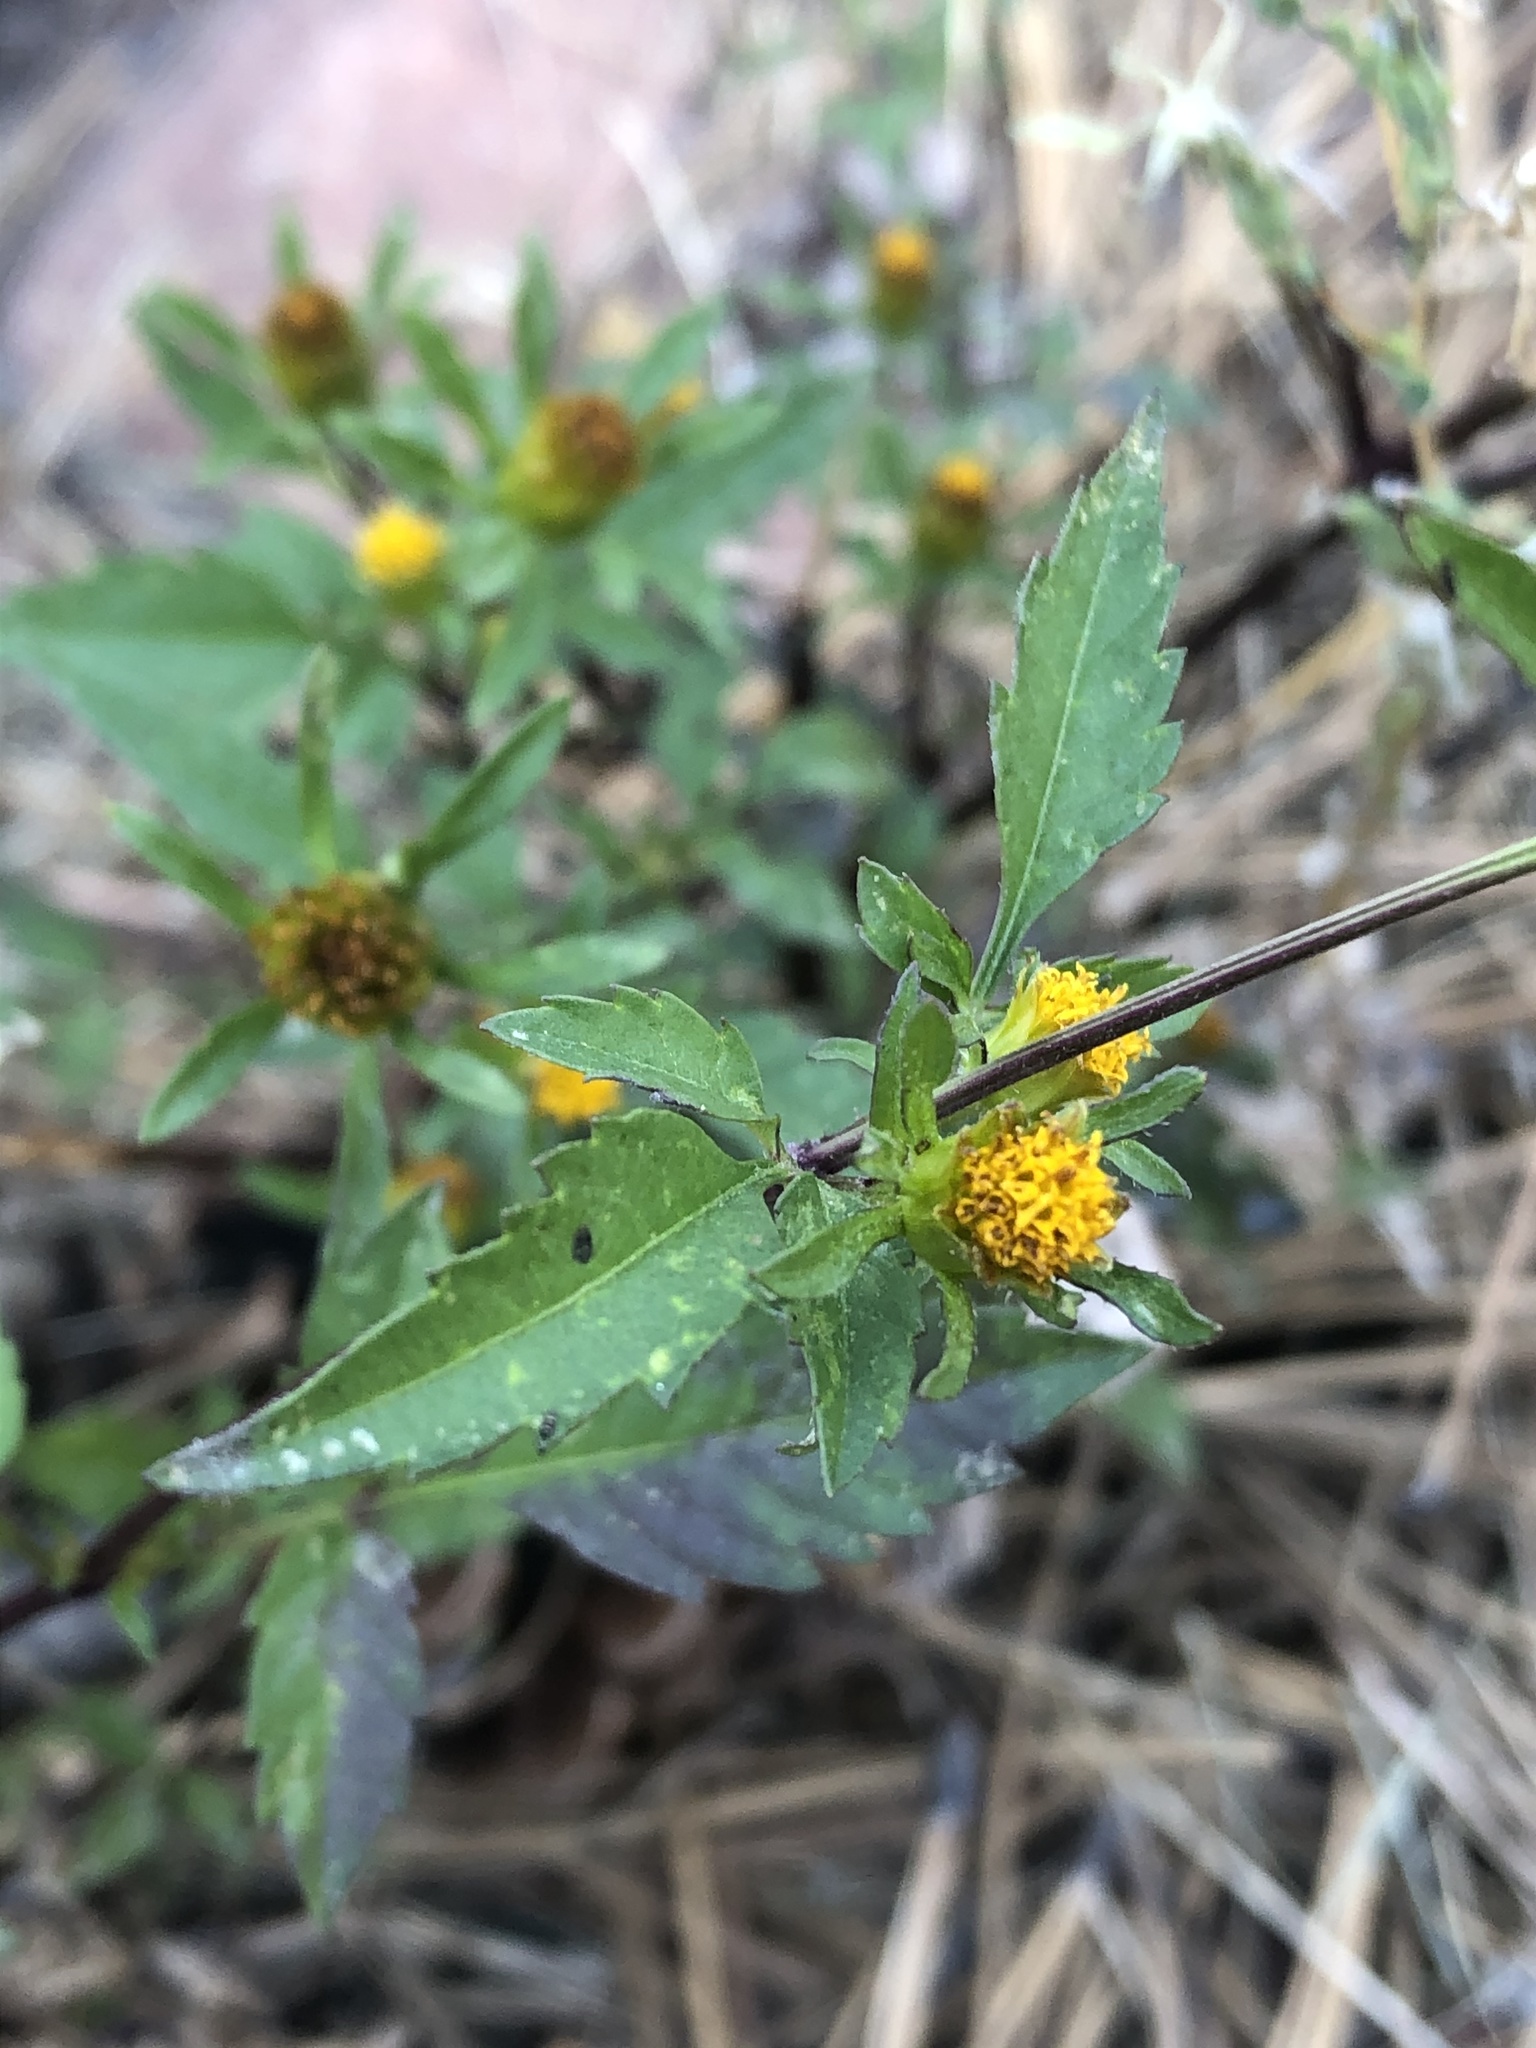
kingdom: Plantae
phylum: Tracheophyta
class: Magnoliopsida
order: Asterales
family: Asteraceae
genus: Bidens
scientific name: Bidens frondosa
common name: Beggarticks
